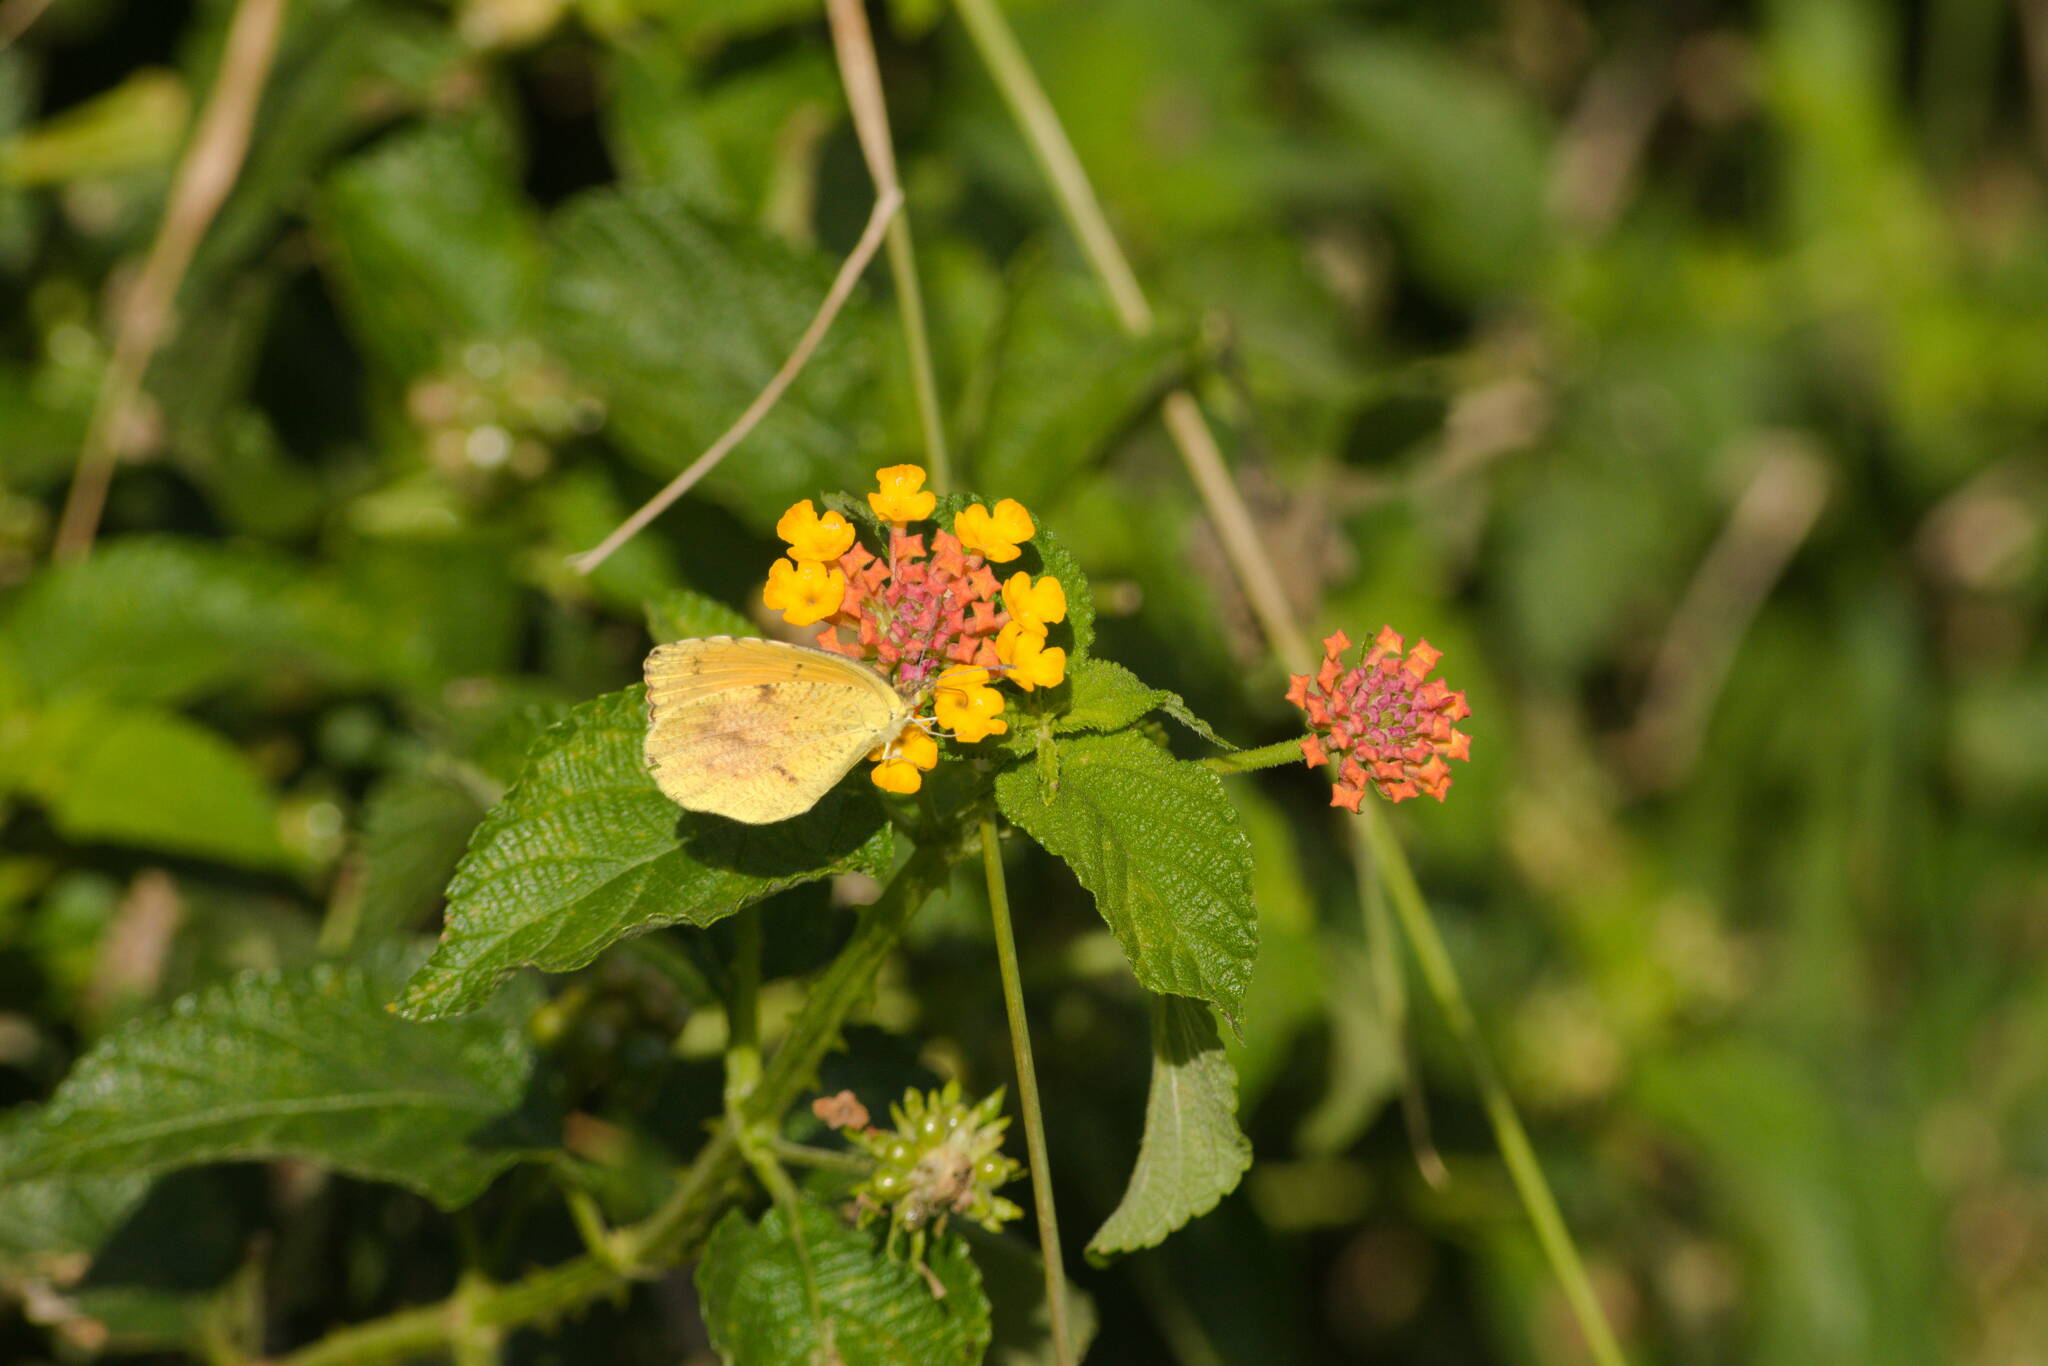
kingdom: Animalia
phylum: Arthropoda
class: Insecta
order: Lepidoptera
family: Pieridae
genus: Abaeis
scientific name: Abaeis nicippe
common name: Sleepy orange
